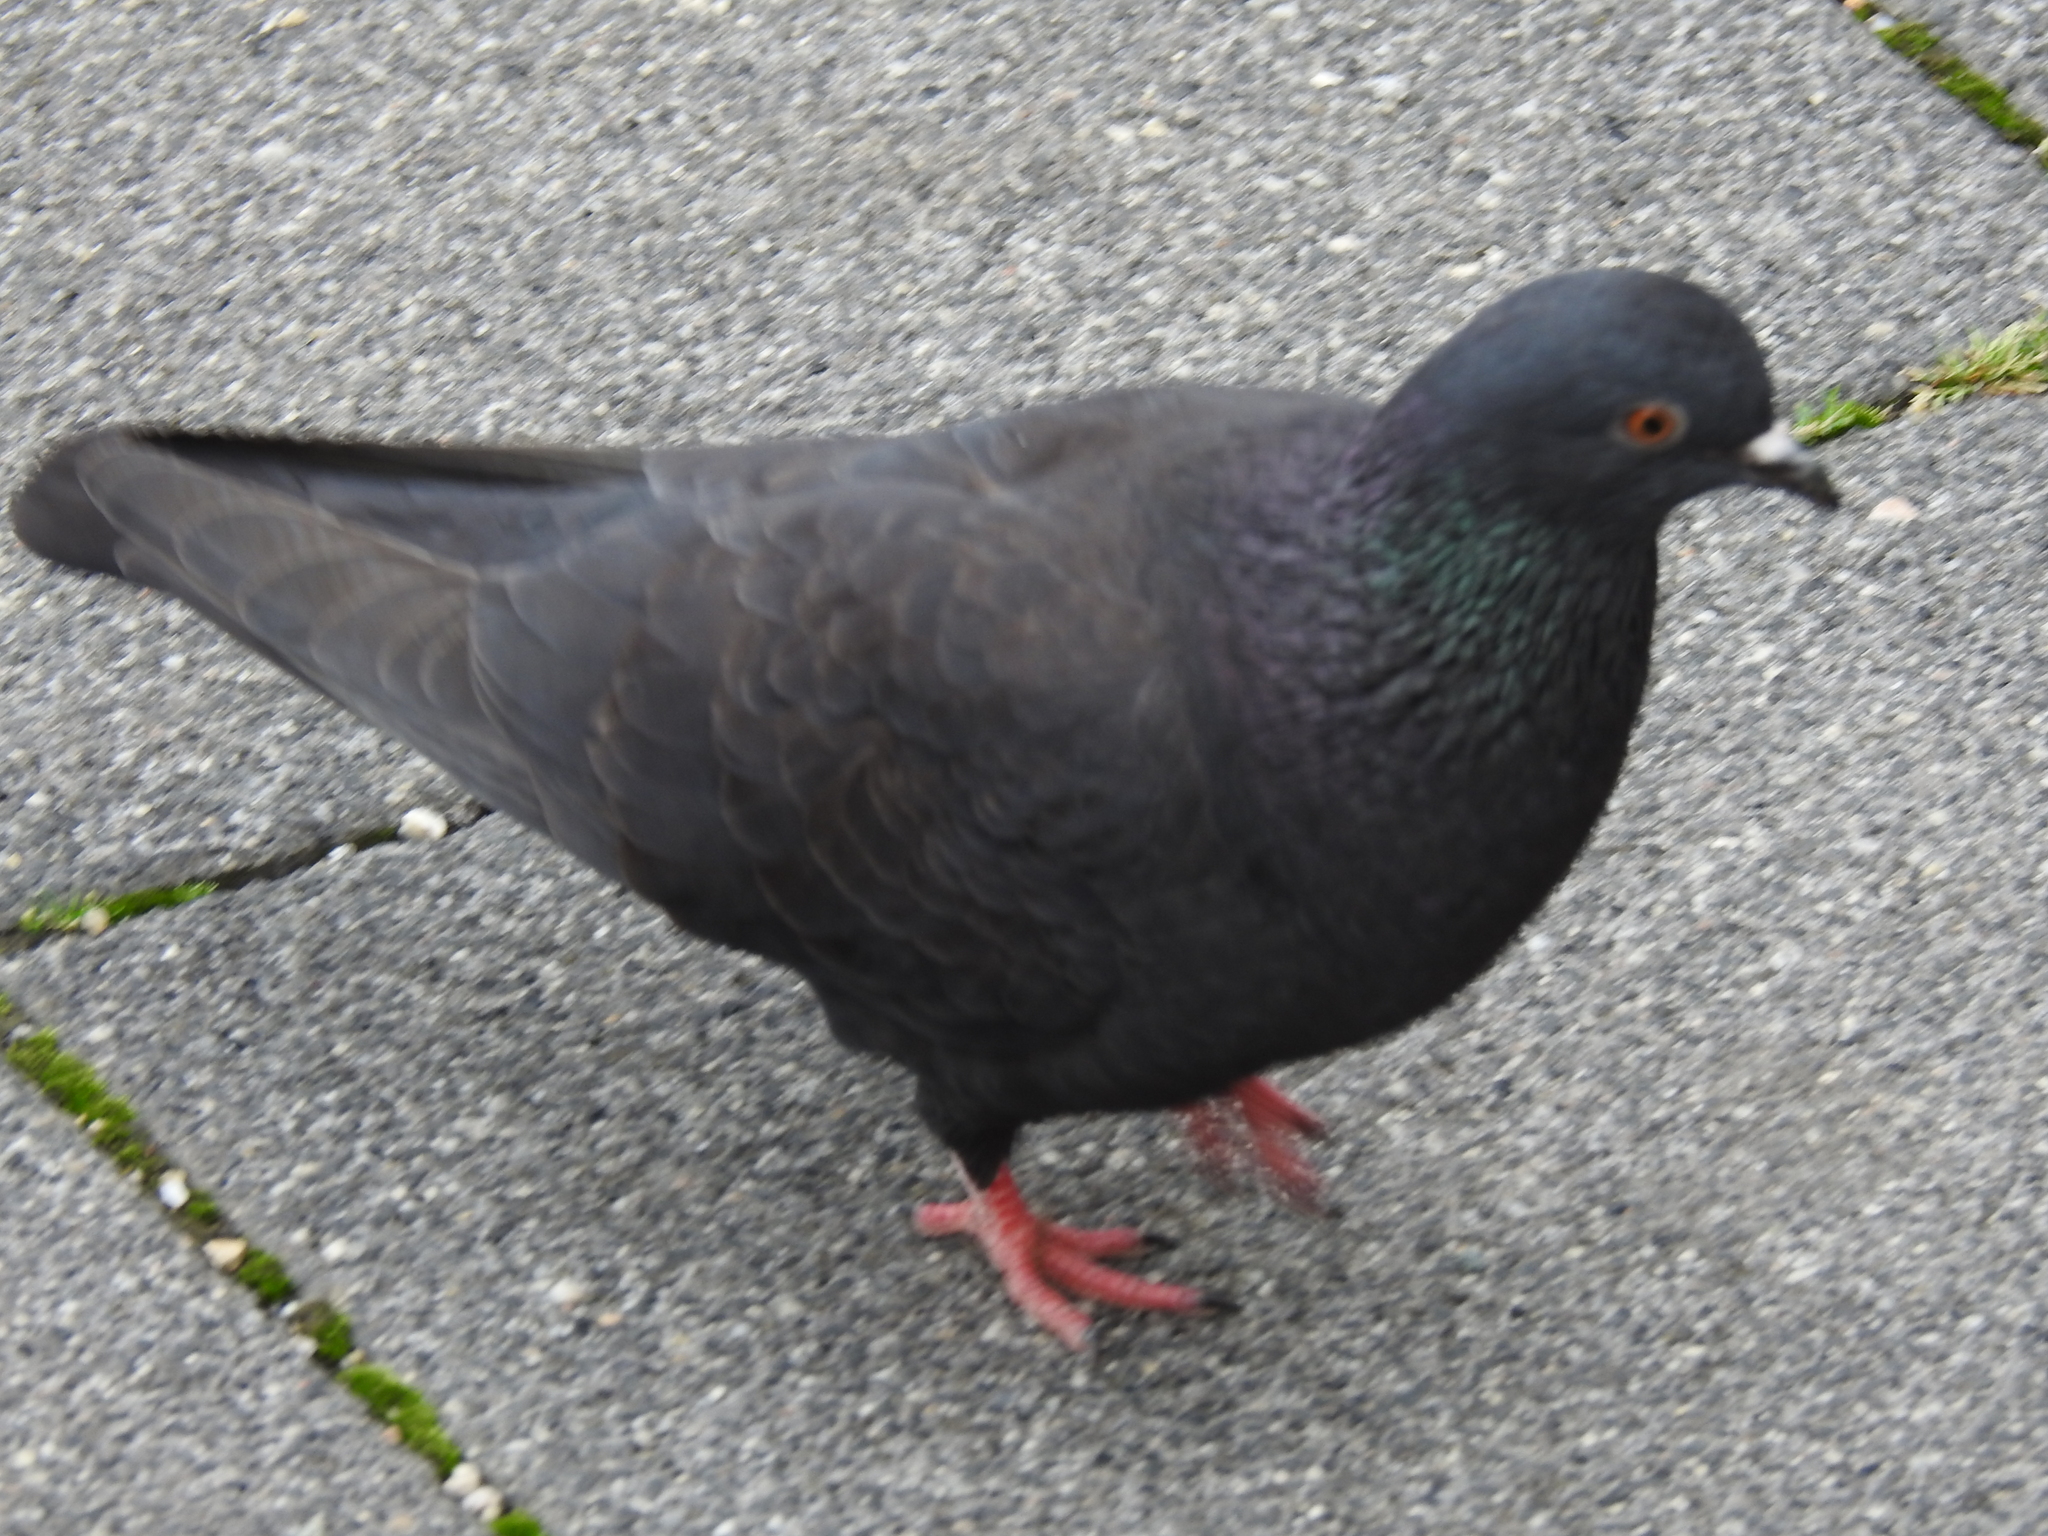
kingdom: Animalia
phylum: Chordata
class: Aves
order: Columbiformes
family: Columbidae
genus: Columba
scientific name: Columba livia
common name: Rock pigeon
